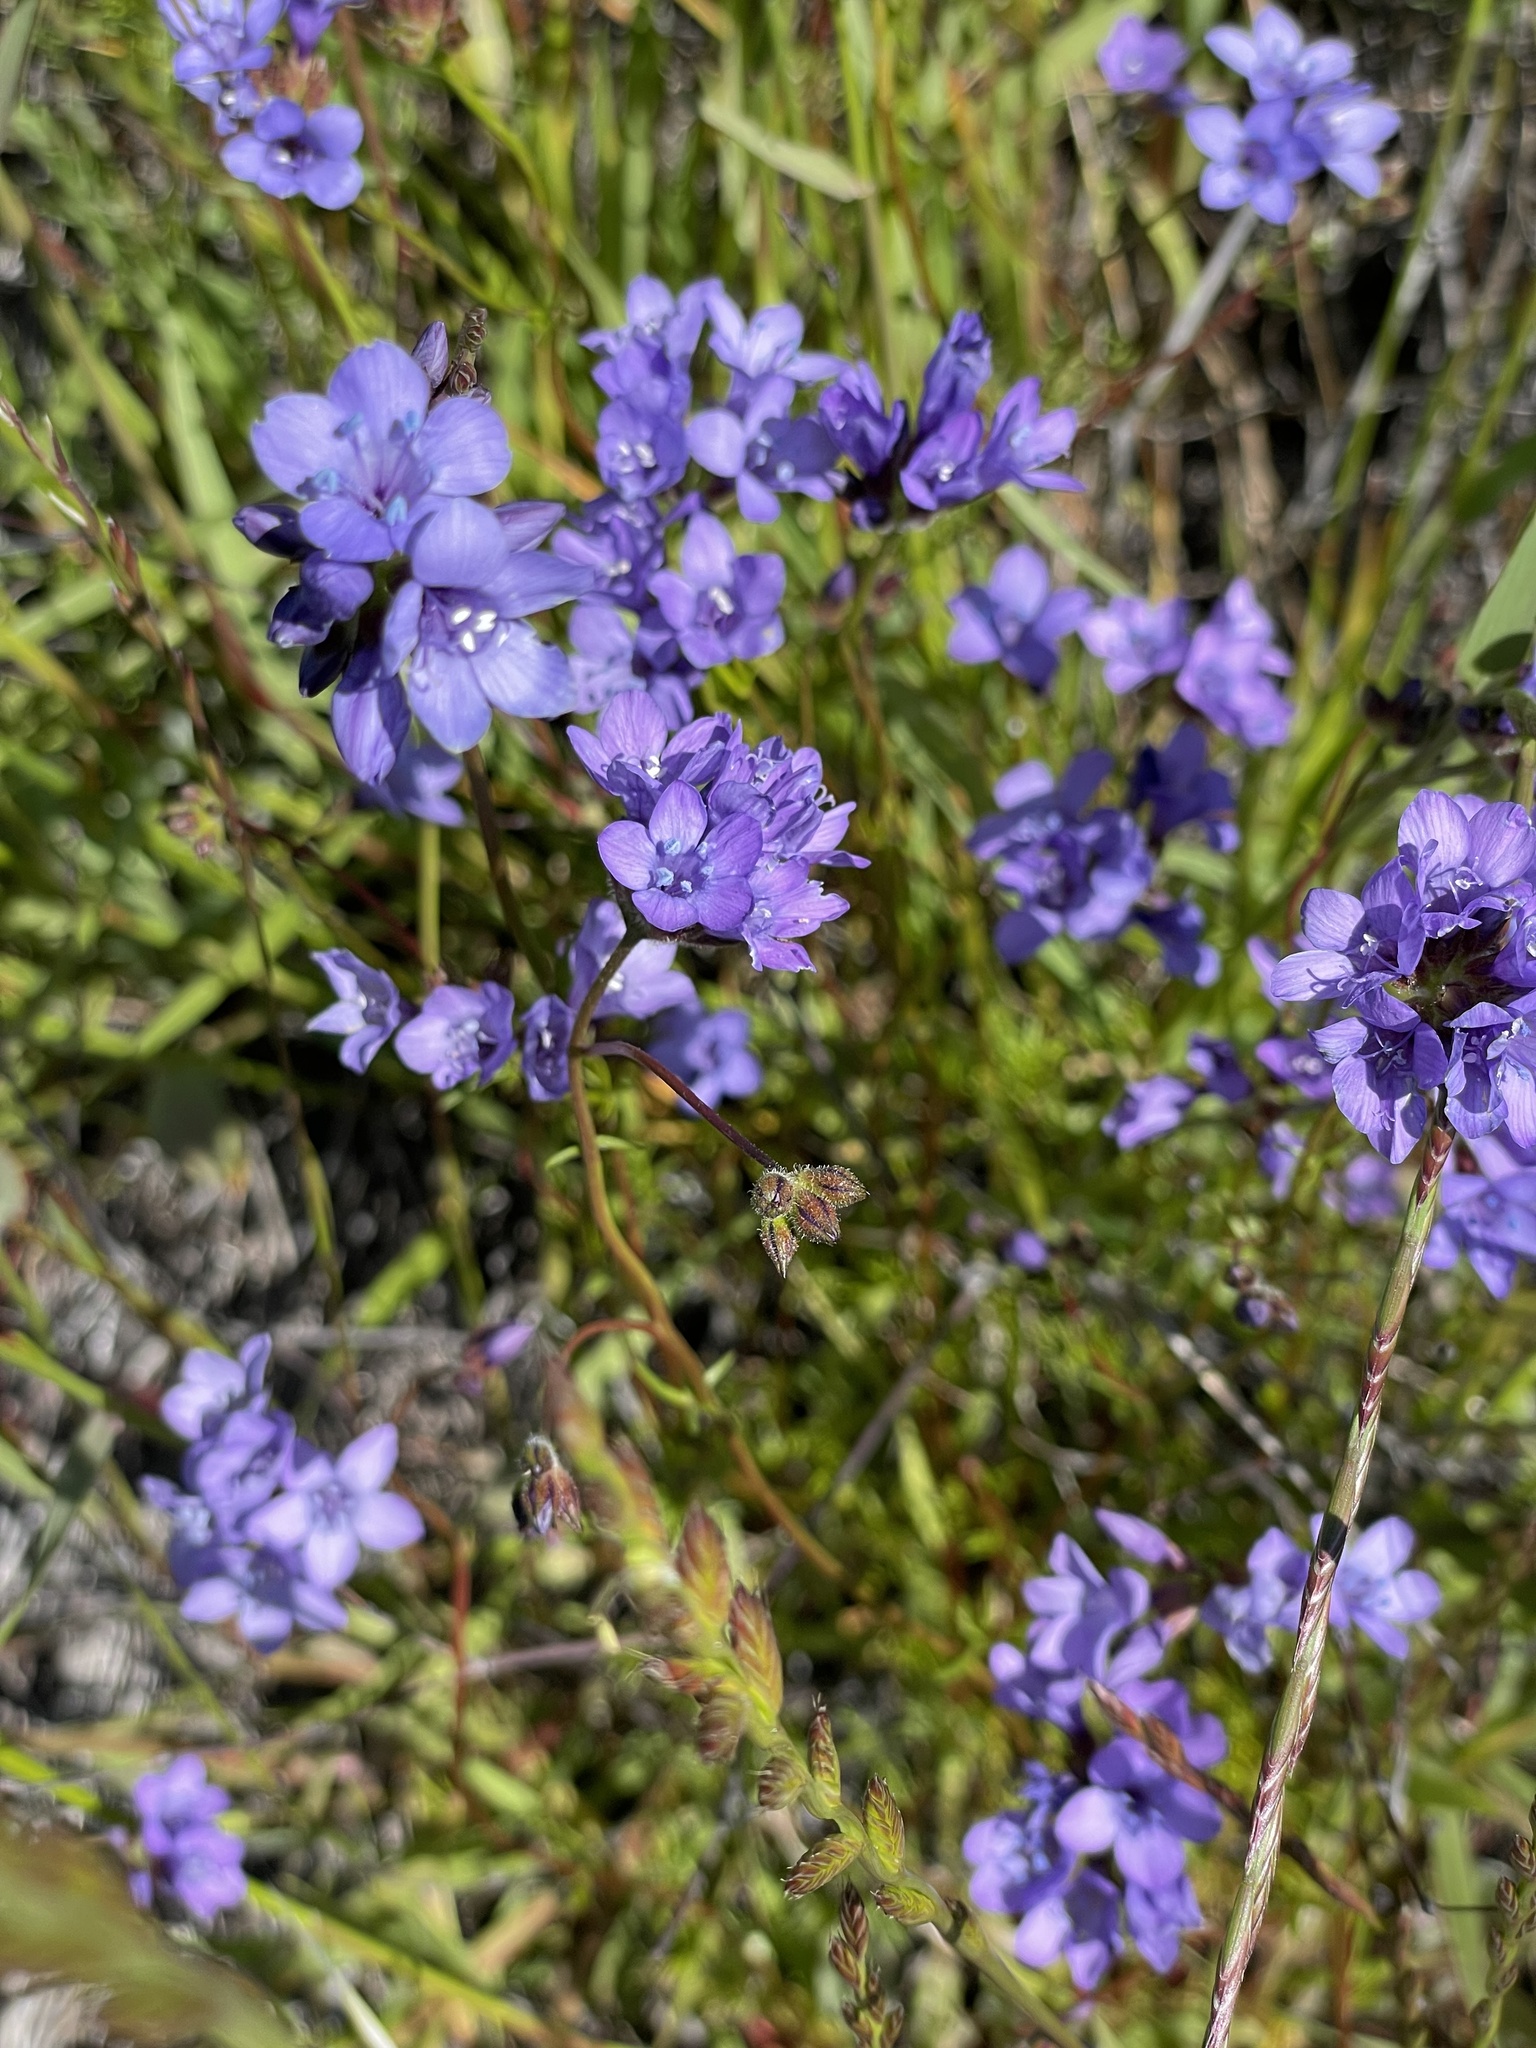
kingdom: Plantae
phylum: Tracheophyta
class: Magnoliopsida
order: Ericales
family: Polemoniaceae
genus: Gilia
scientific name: Gilia achilleifolia
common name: California gily-flower
